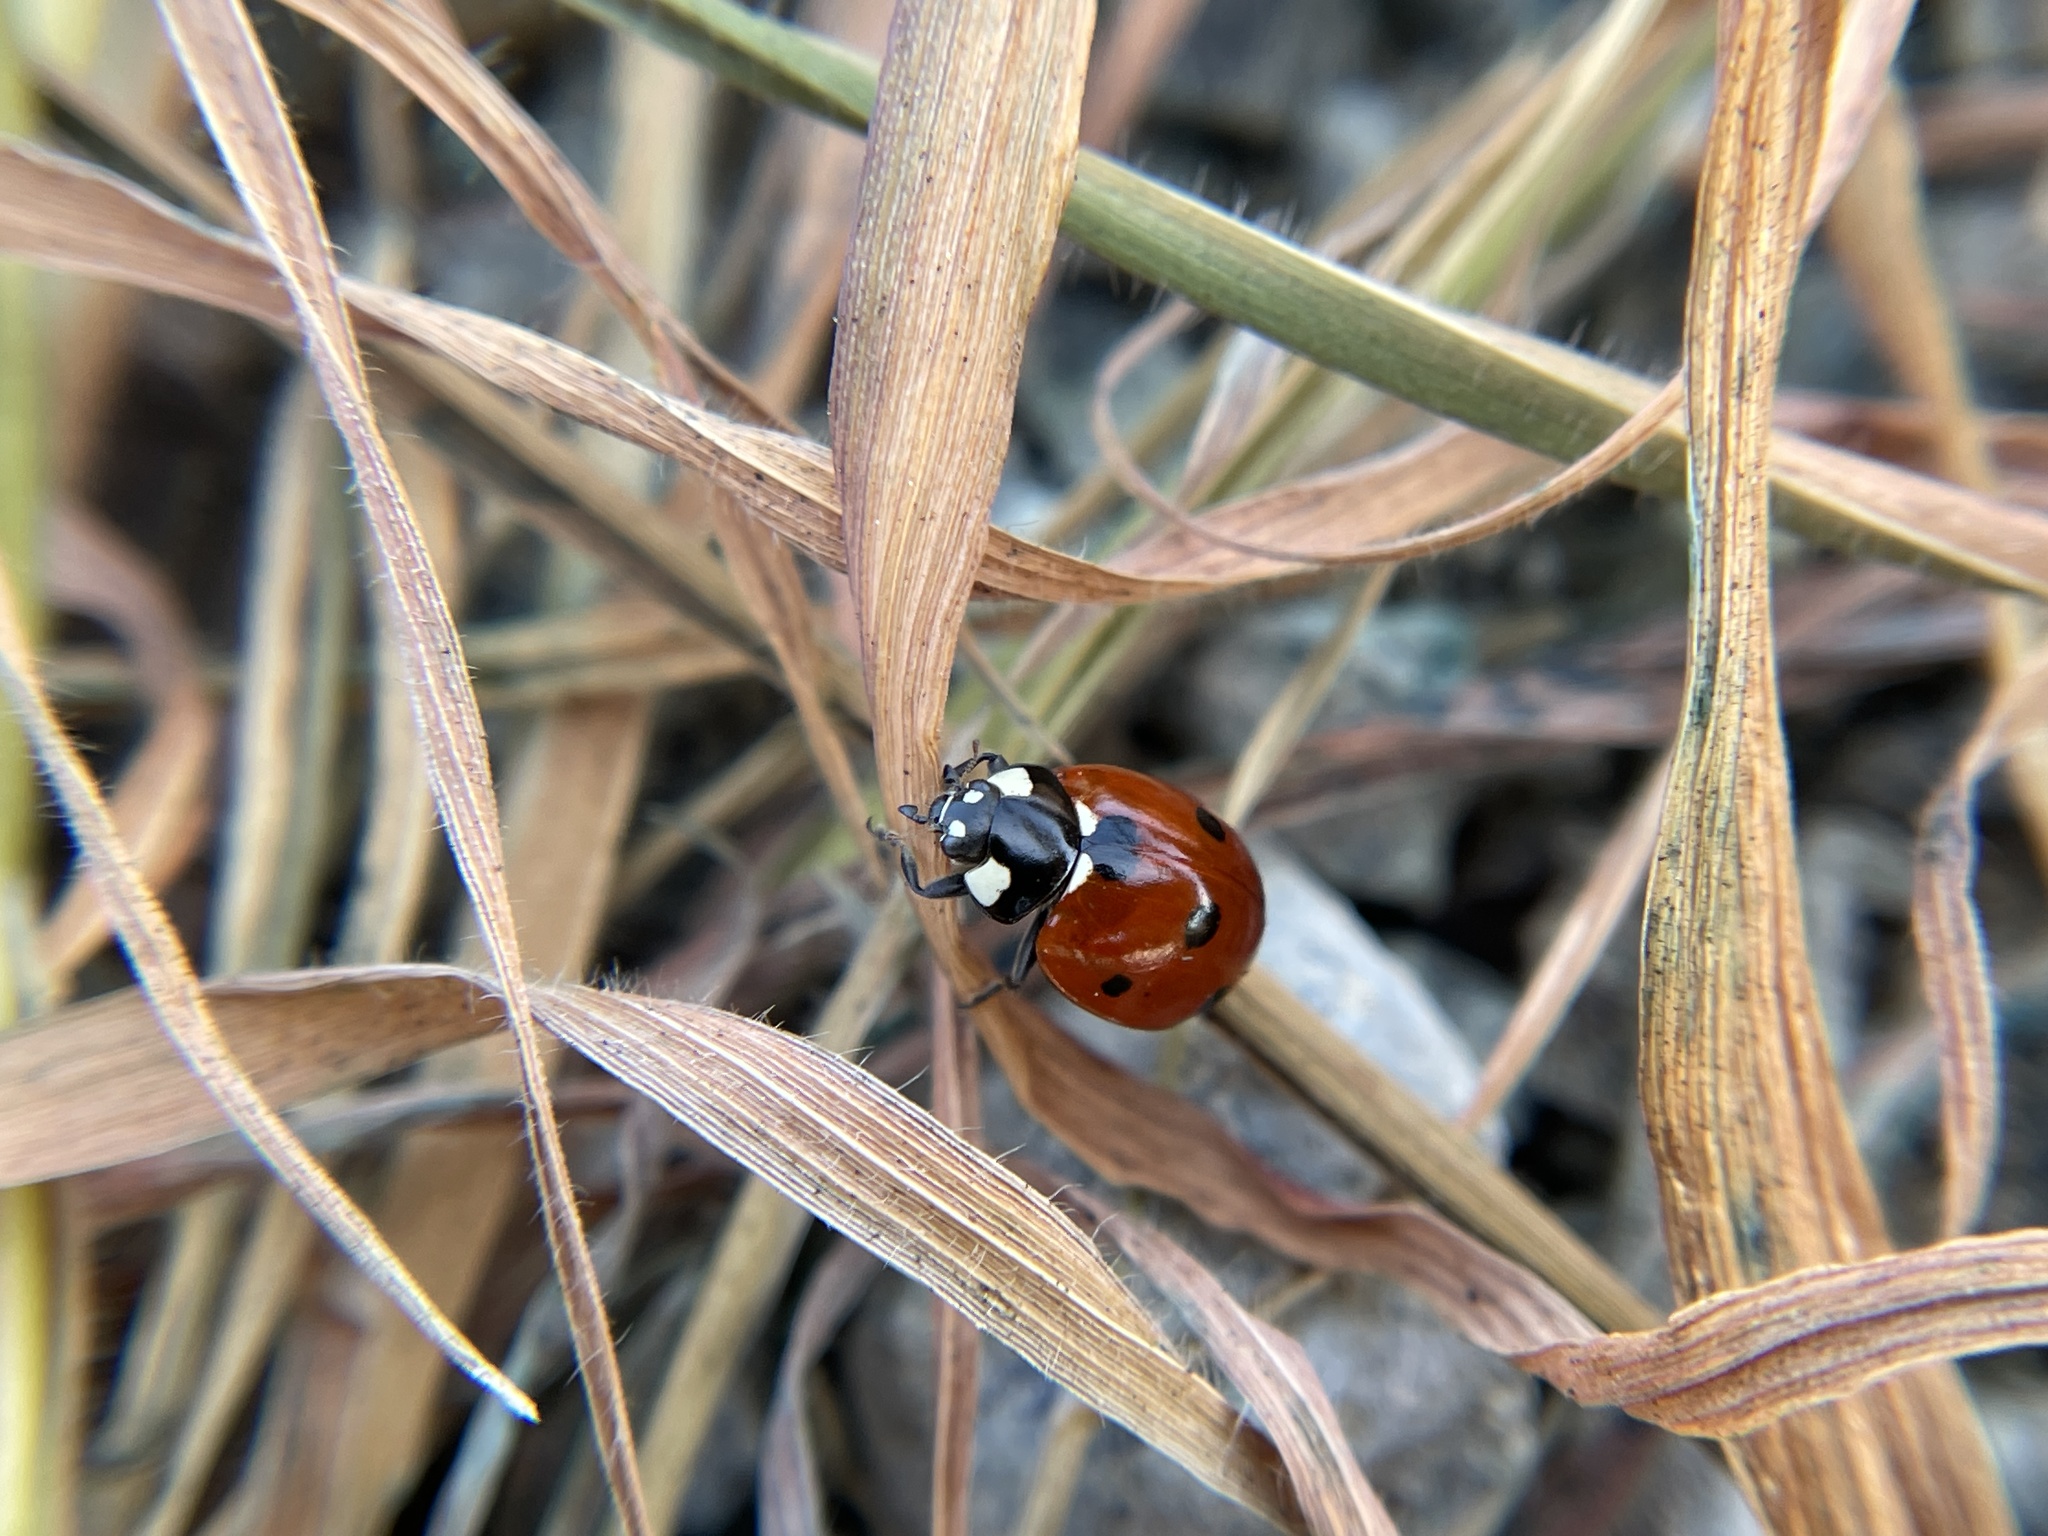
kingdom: Animalia
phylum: Arthropoda
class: Insecta
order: Coleoptera
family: Coccinellidae
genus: Coccinella
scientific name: Coccinella septempunctata
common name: Sevenspotted lady beetle
